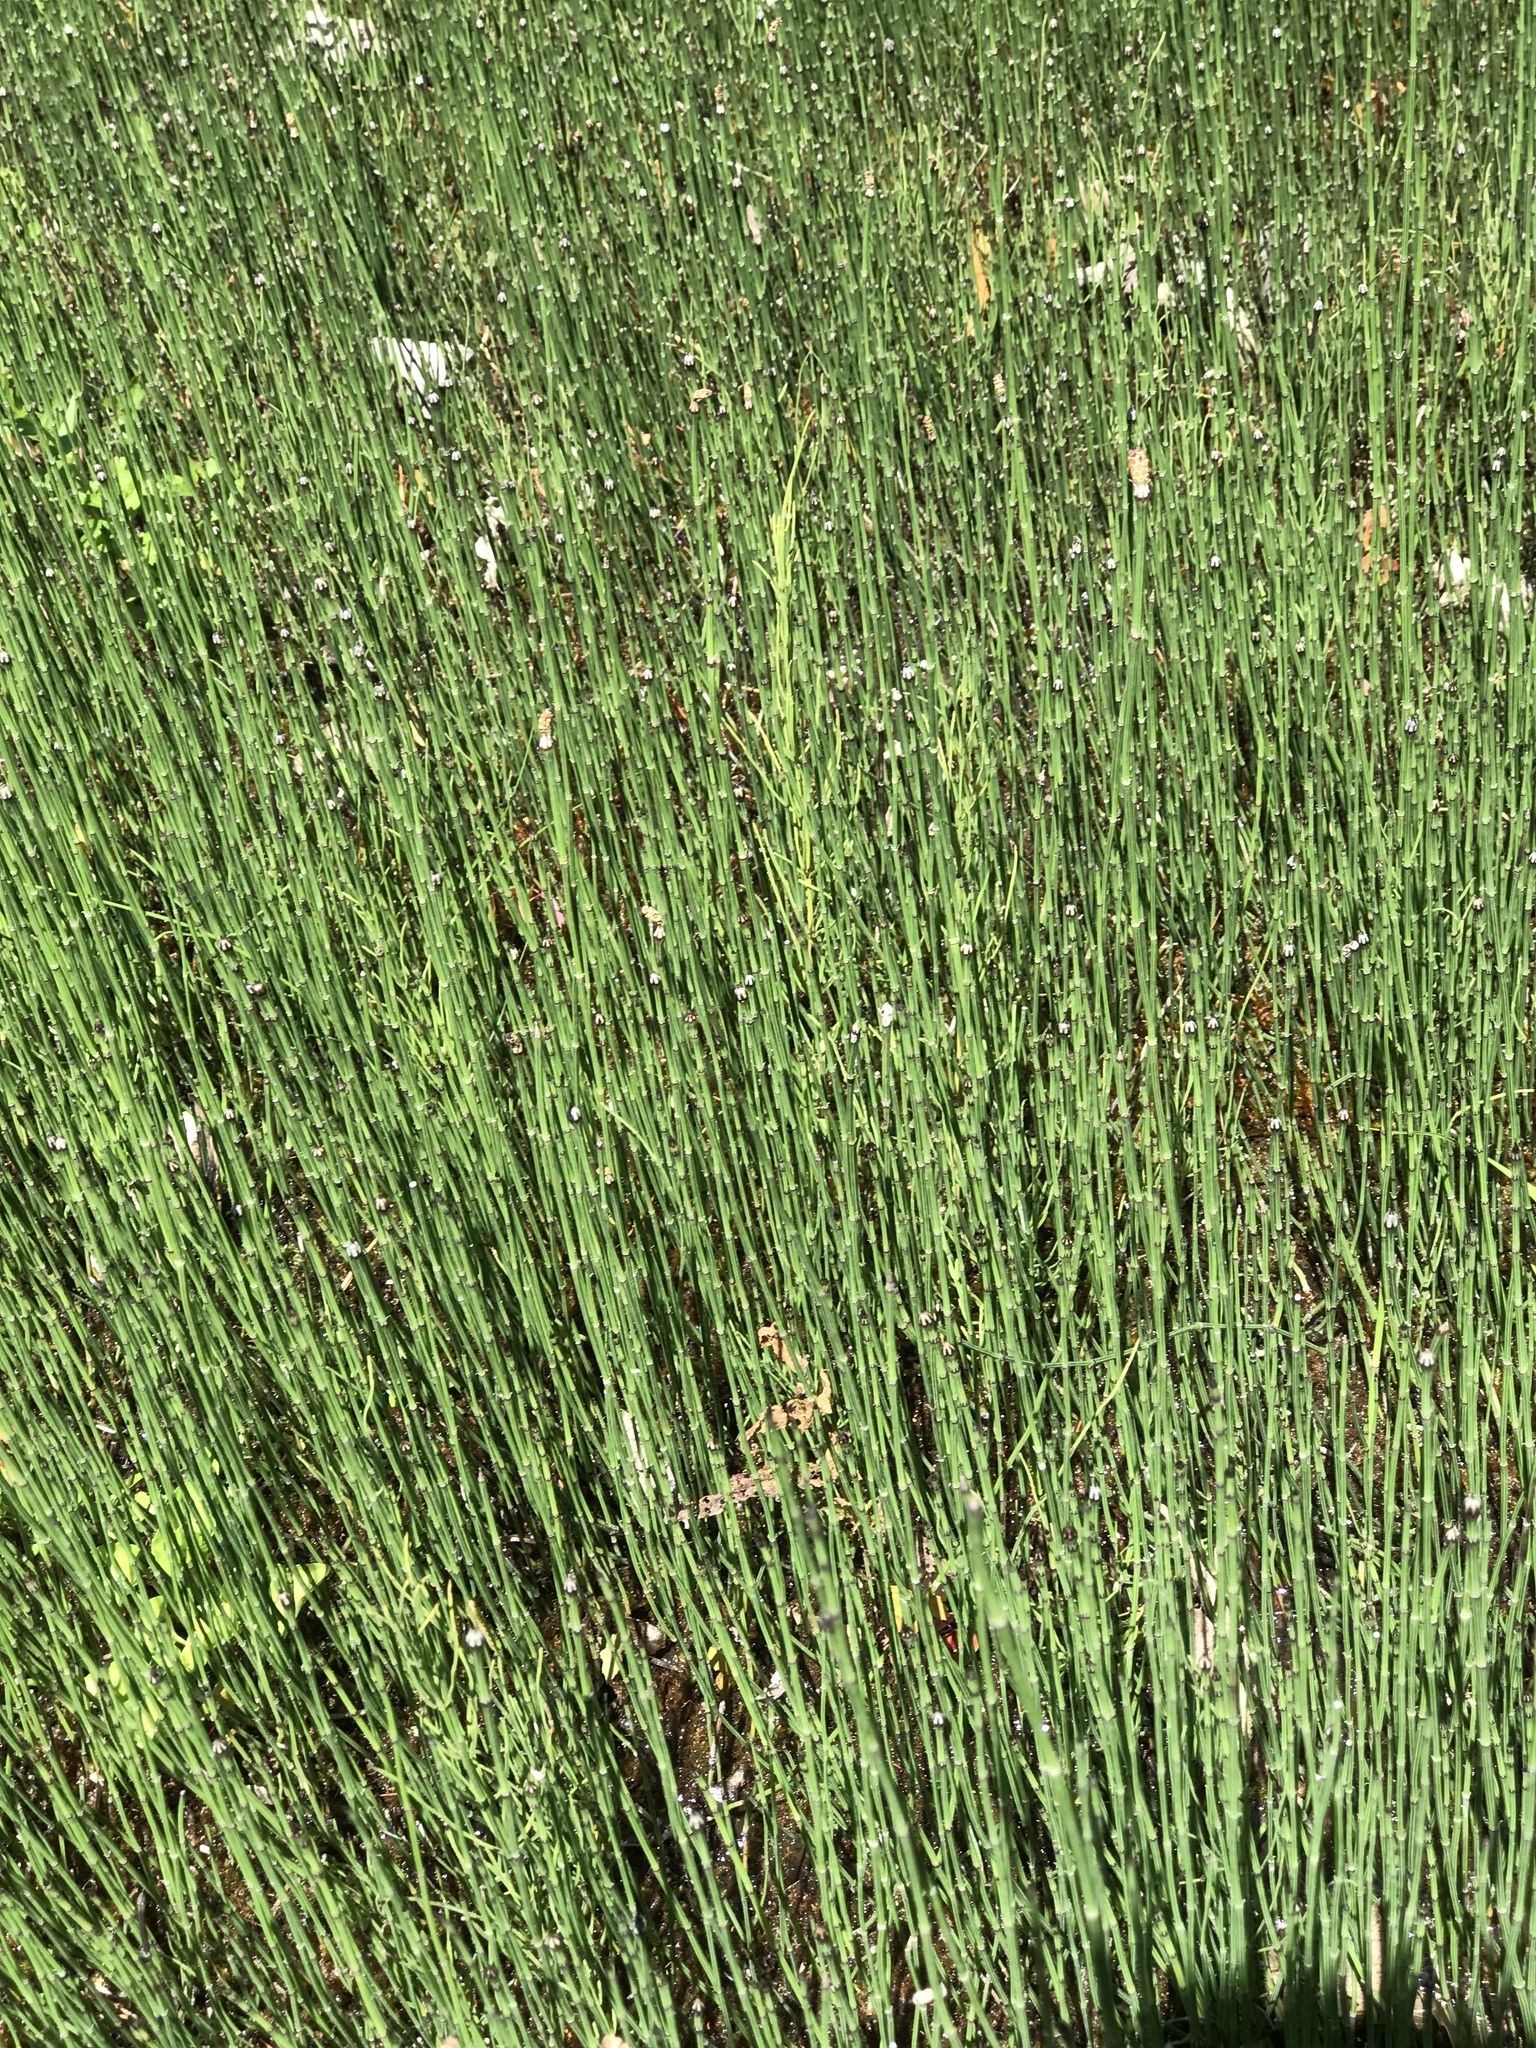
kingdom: Plantae
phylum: Tracheophyta
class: Polypodiopsida
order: Equisetales
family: Equisetaceae
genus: Equisetum
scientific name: Equisetum variegatum
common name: Variegated horsetail
